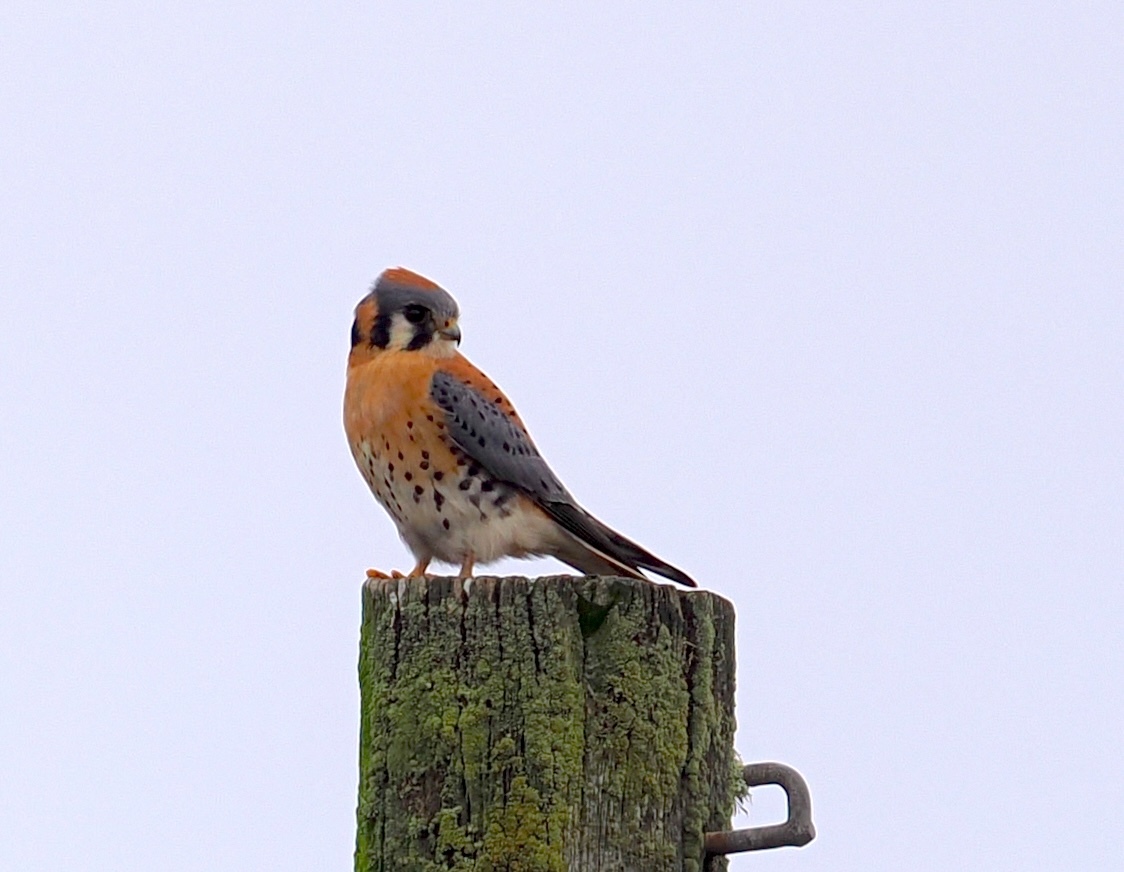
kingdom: Animalia
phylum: Chordata
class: Aves
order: Falconiformes
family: Falconidae
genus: Falco
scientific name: Falco sparverius
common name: American kestrel
